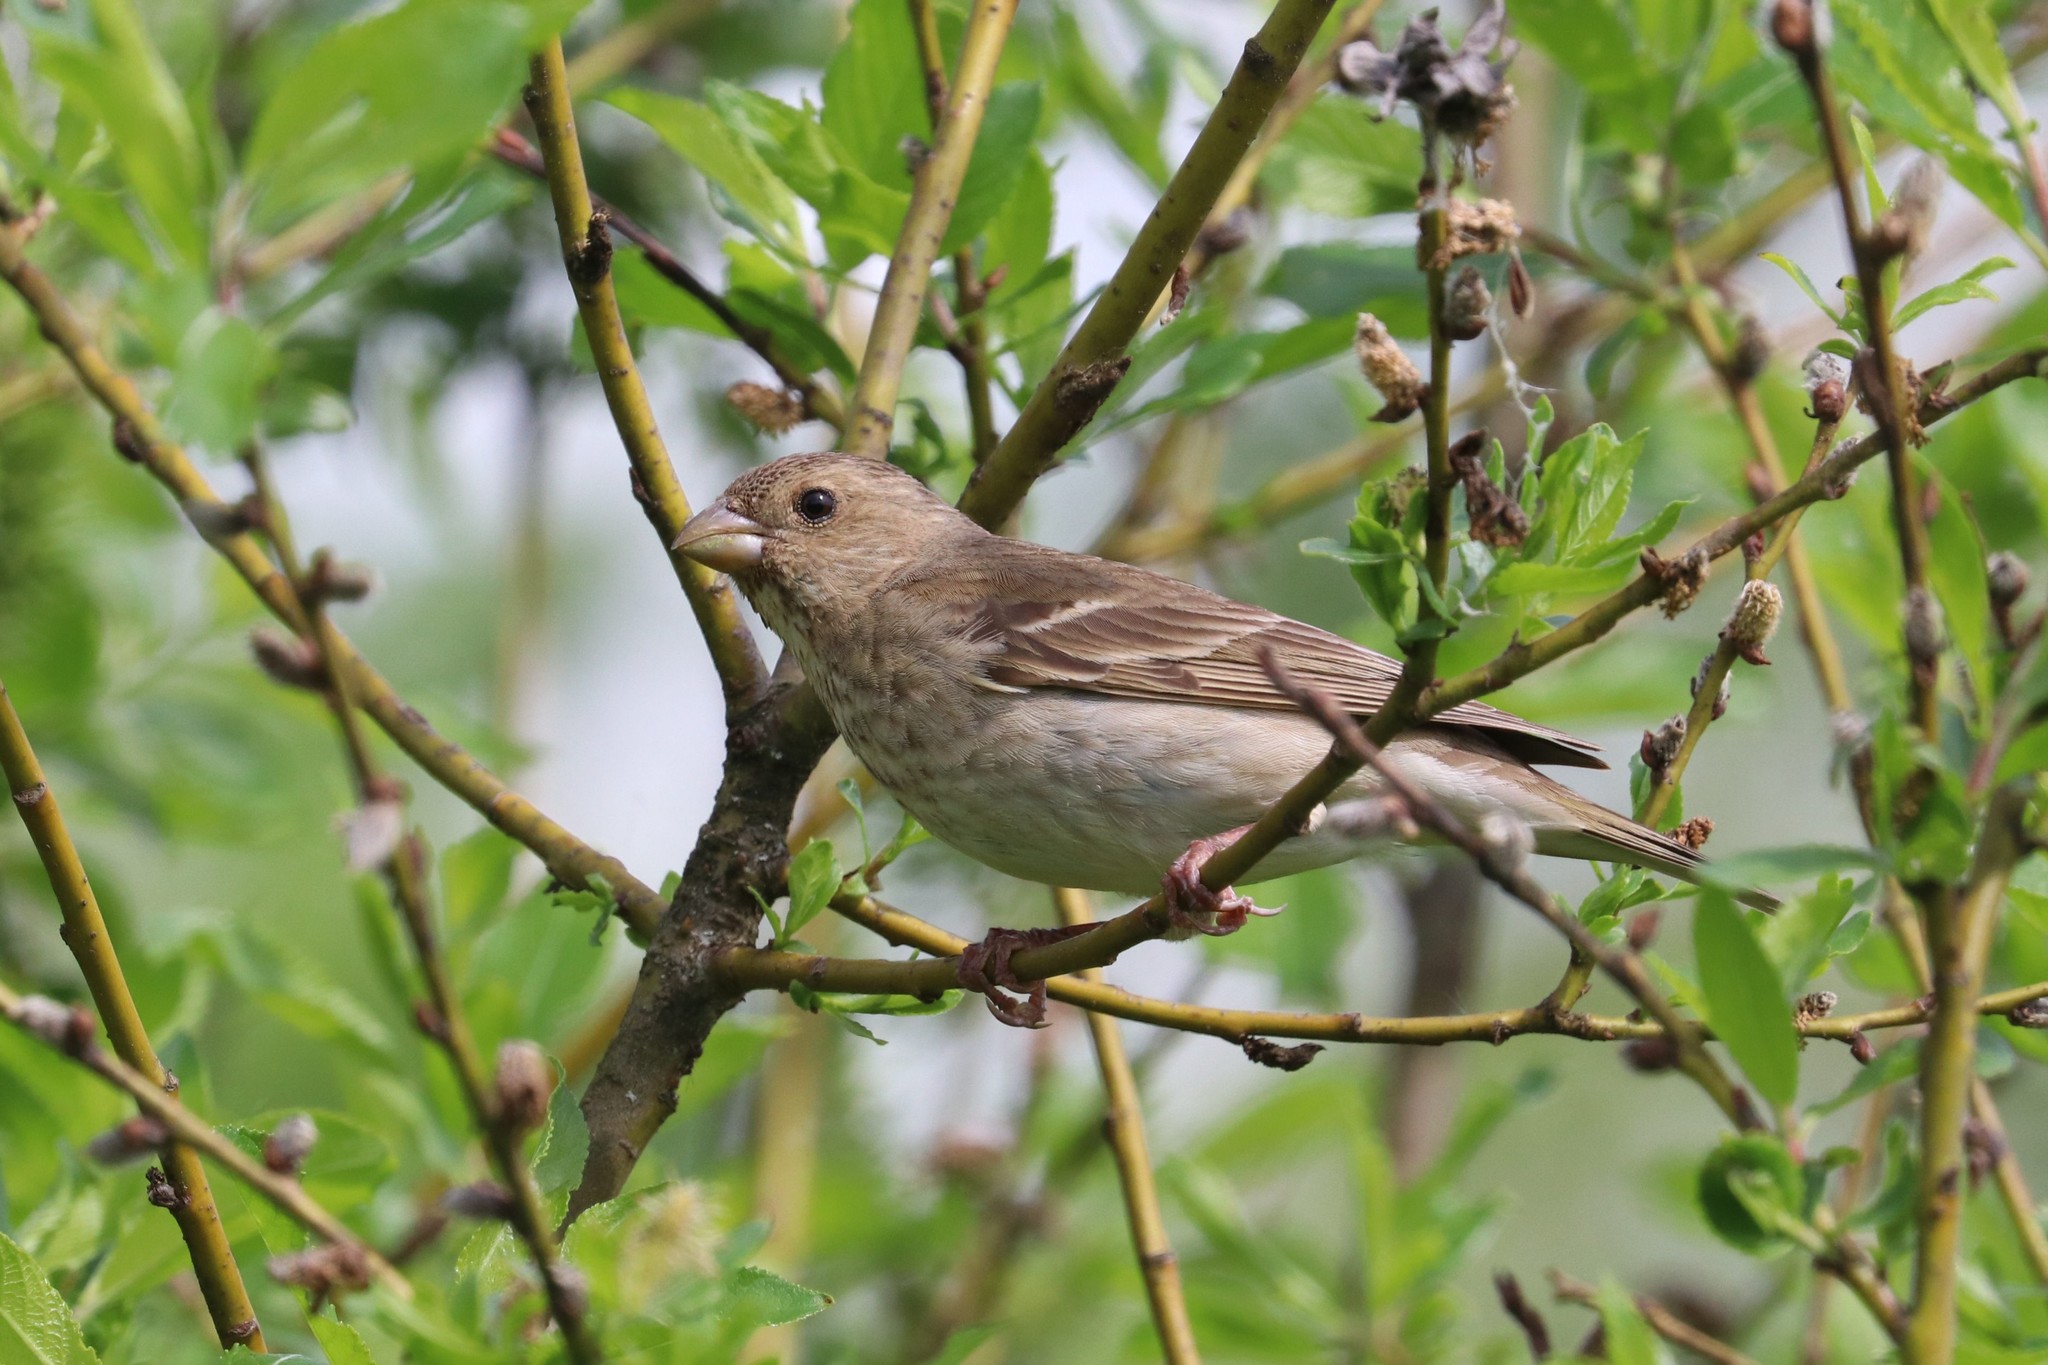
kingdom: Animalia
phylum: Chordata
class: Aves
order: Passeriformes
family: Fringillidae
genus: Carpodacus
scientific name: Carpodacus erythrinus
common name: Common rosefinch
